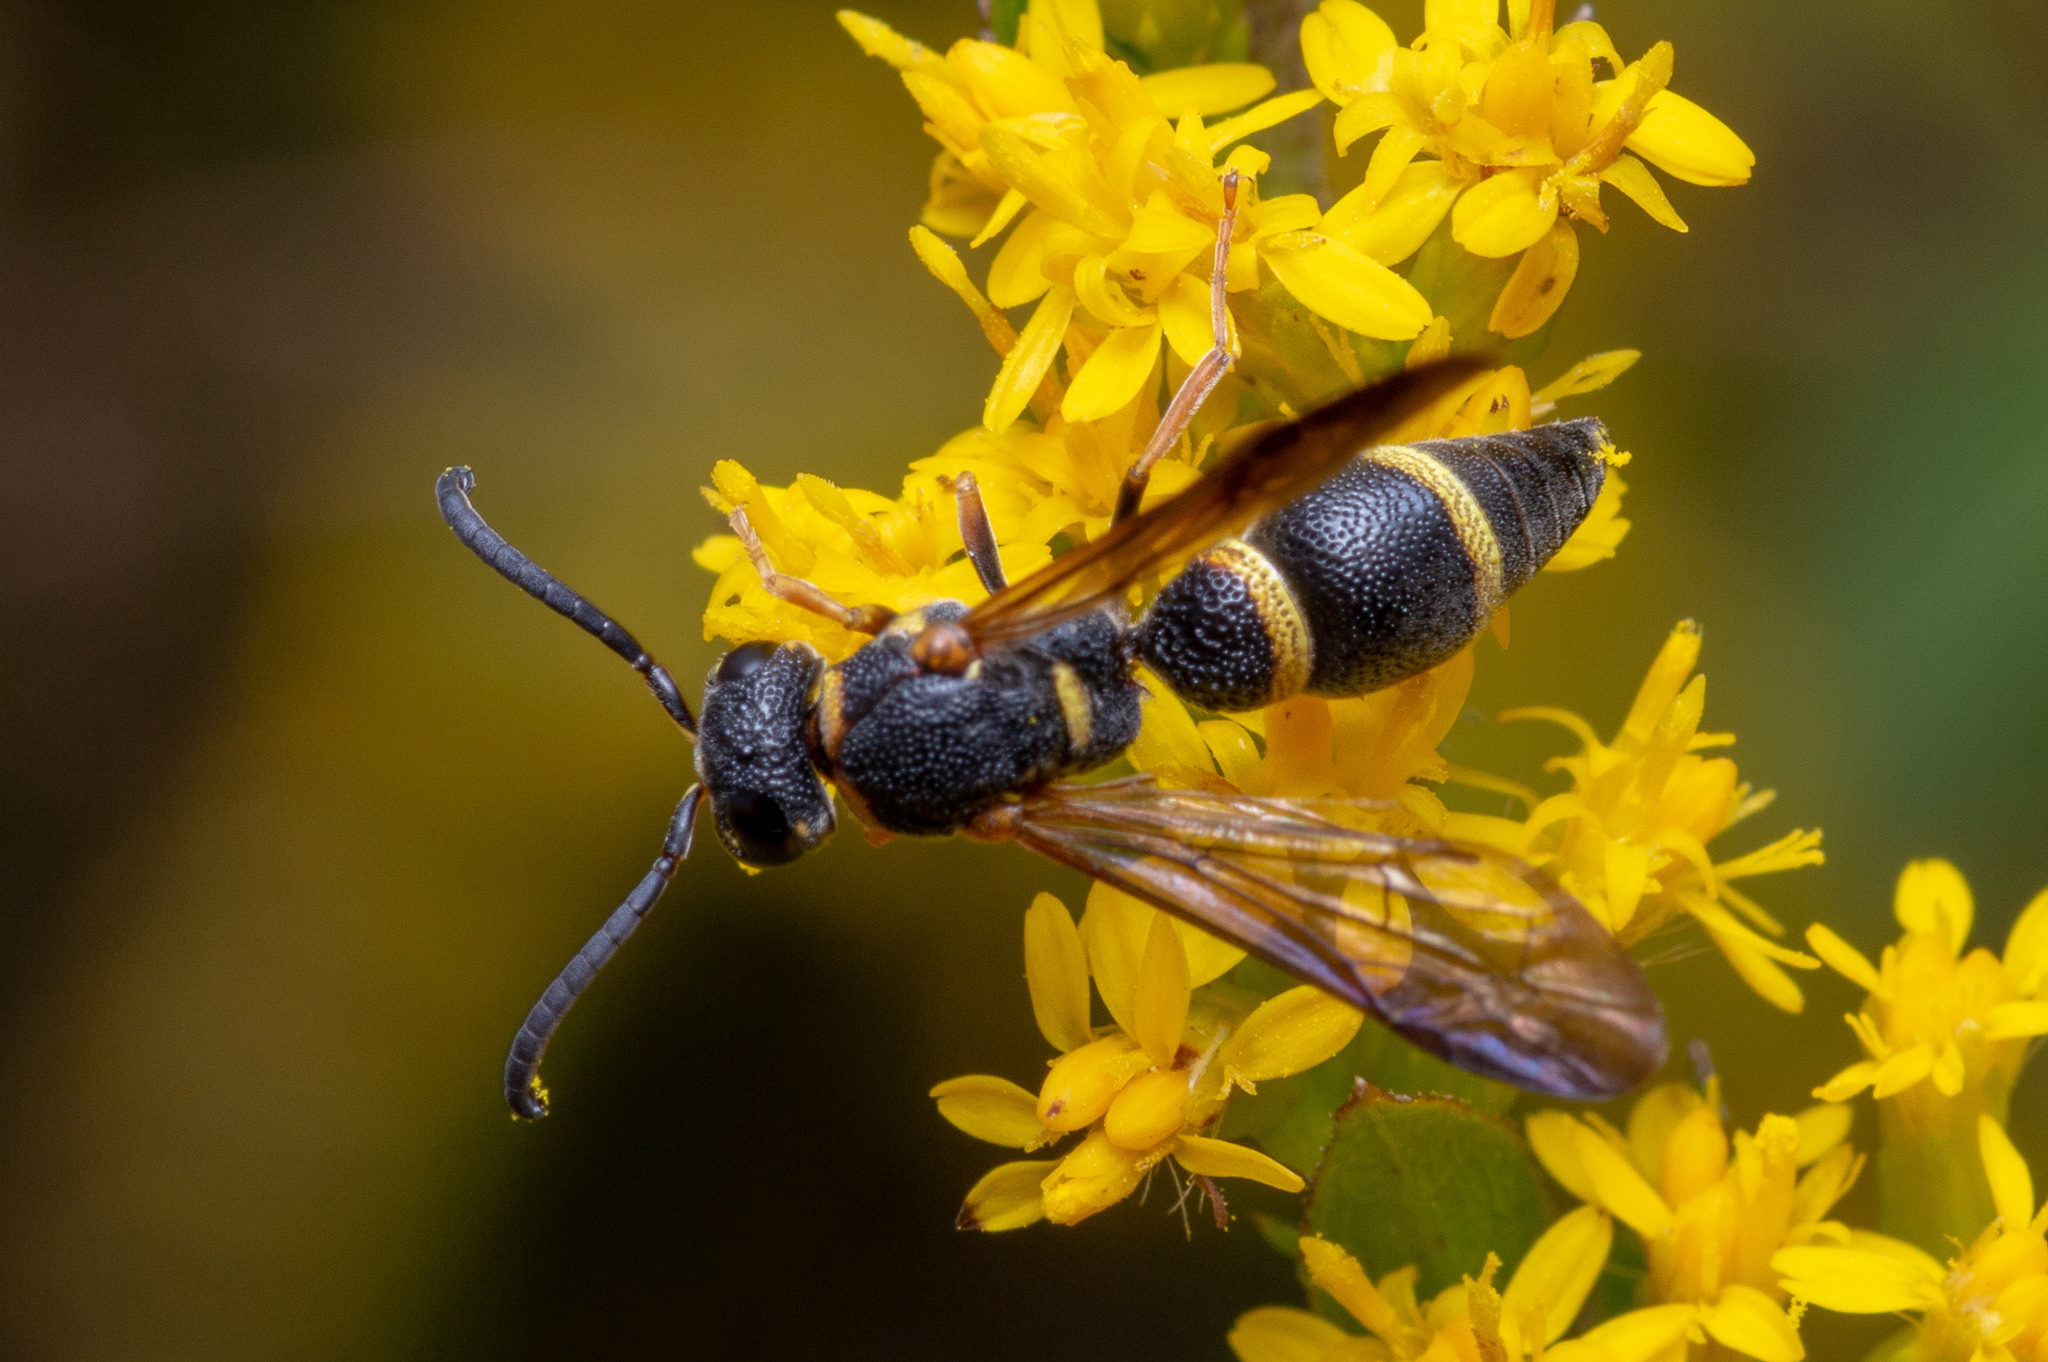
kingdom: Animalia
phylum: Arthropoda
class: Insecta
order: Hymenoptera
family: Eumenidae
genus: Parancistrocerus
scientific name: Parancistrocerus perennis
